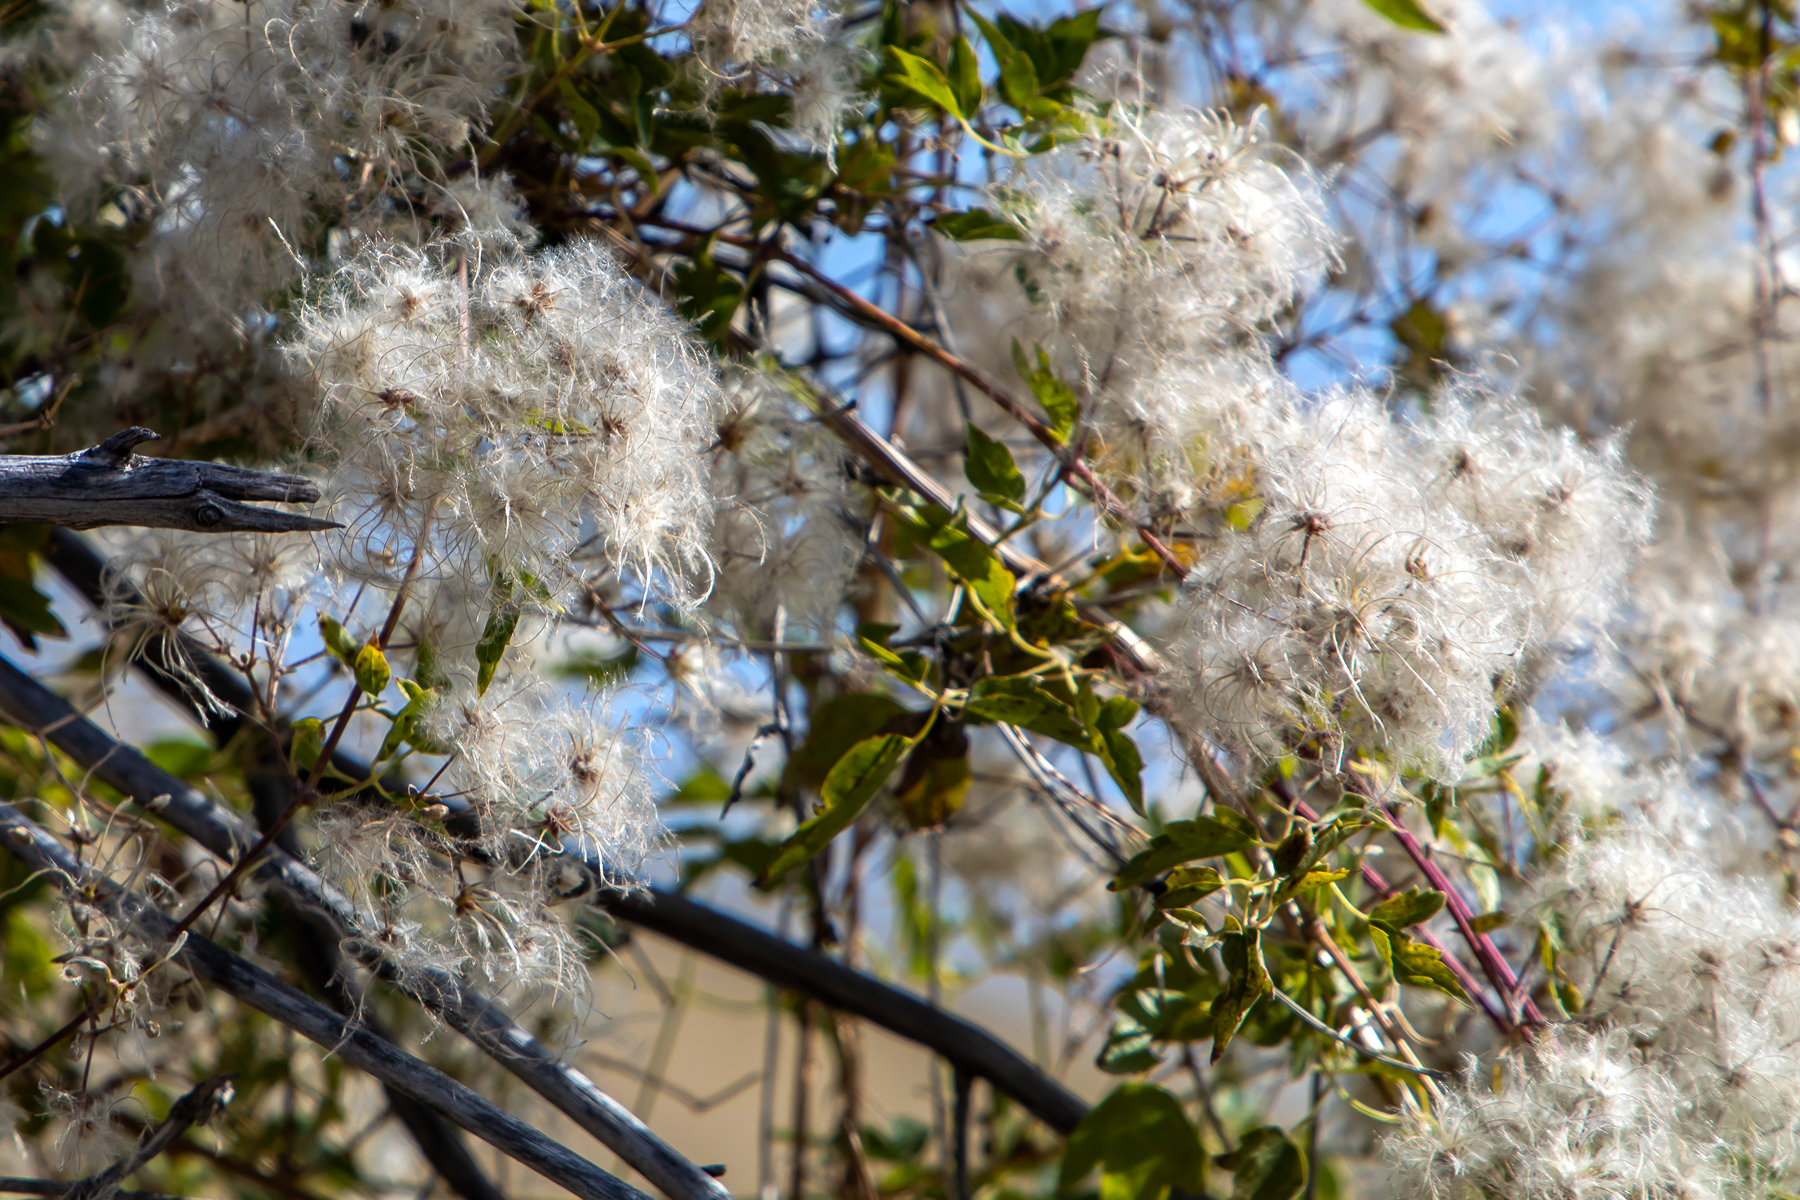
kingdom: Plantae
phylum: Tracheophyta
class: Magnoliopsida
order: Ranunculales
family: Ranunculaceae
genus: Clematis
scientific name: Clematis ligusticifolia
